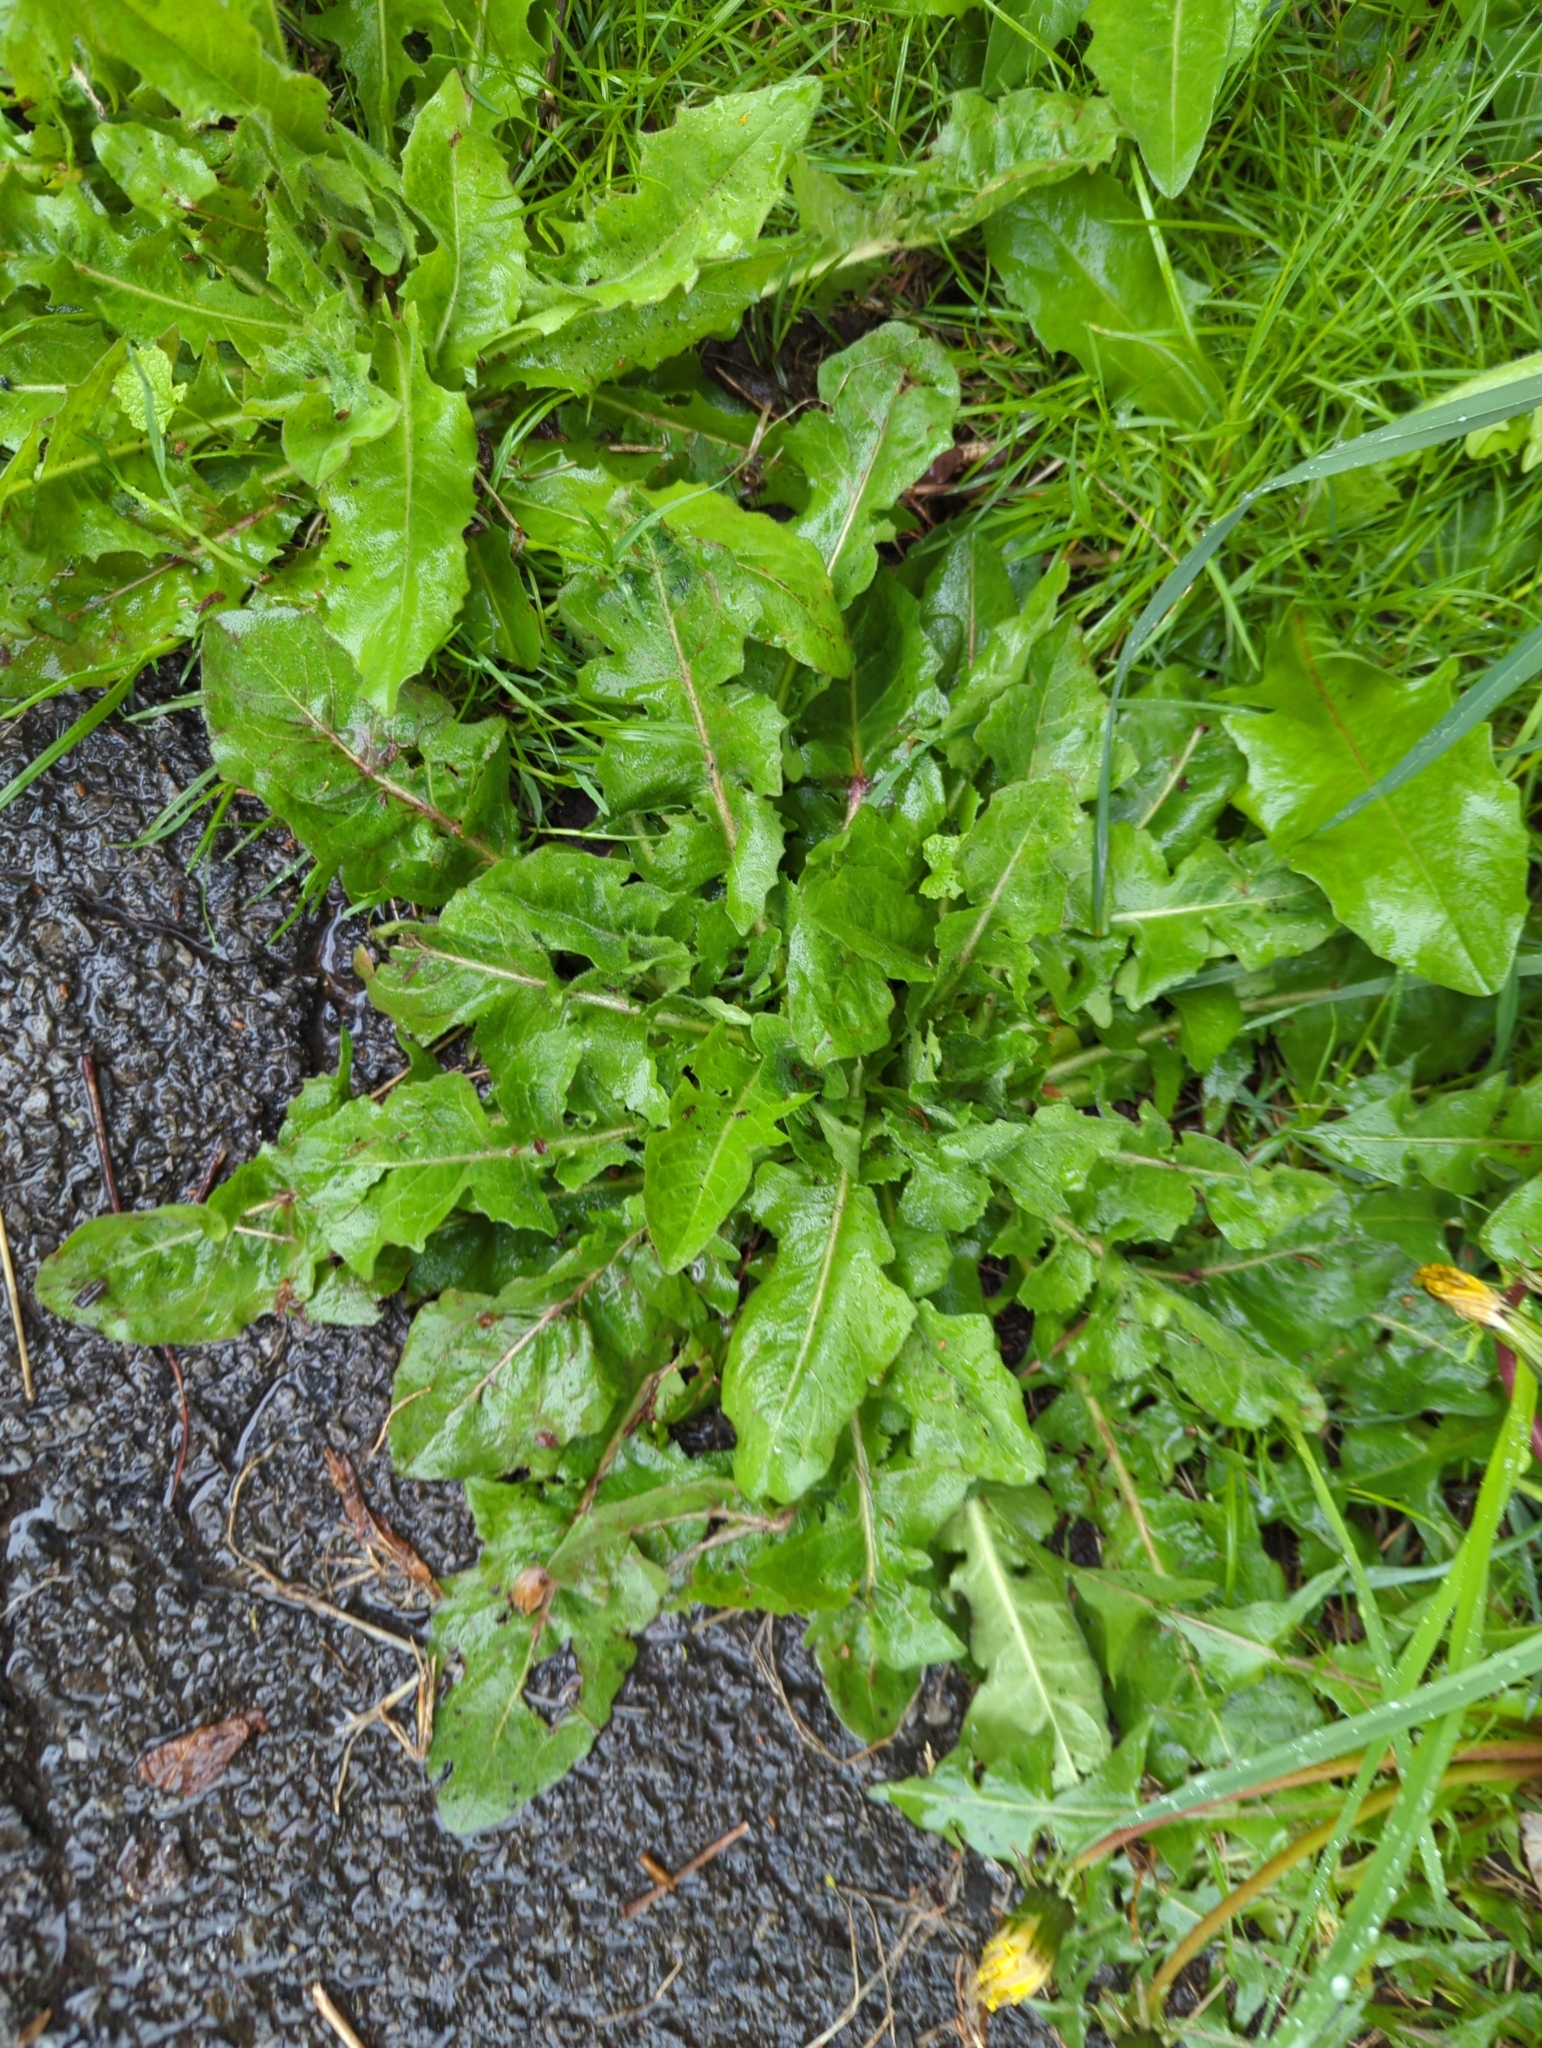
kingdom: Plantae
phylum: Tracheophyta
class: Magnoliopsida
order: Asterales
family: Asteraceae
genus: Cichorium
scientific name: Cichorium intybus
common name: Chicory
